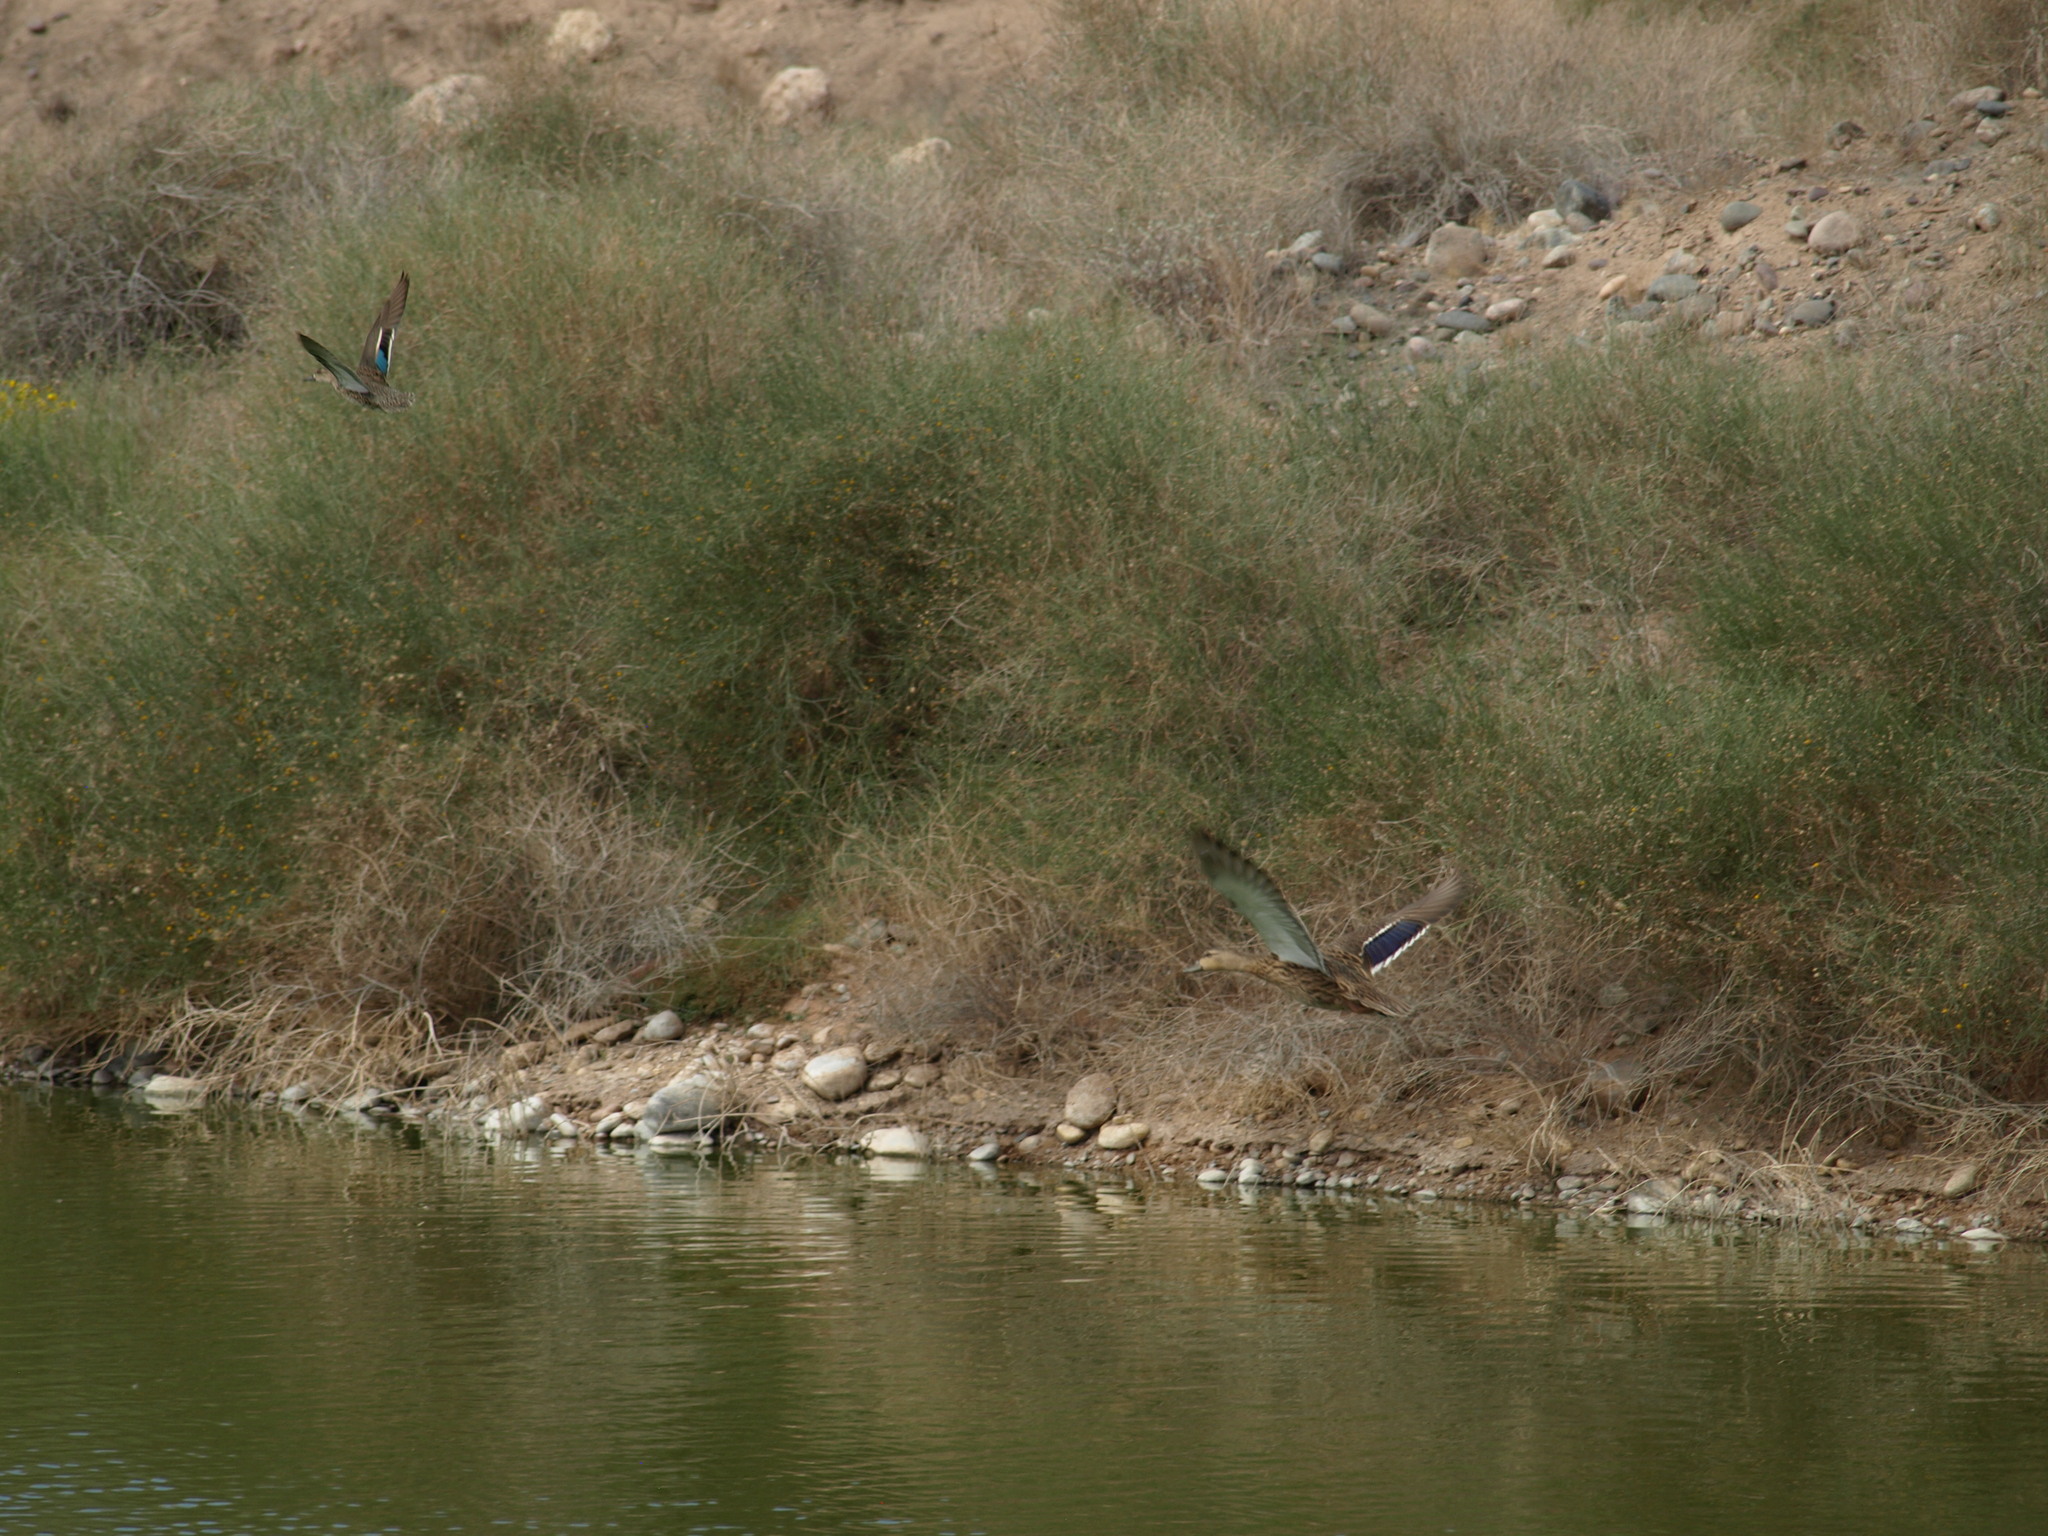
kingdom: Animalia
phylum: Chordata
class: Aves
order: Anseriformes
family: Anatidae
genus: Anas
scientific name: Anas diazi
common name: Mexican duck
